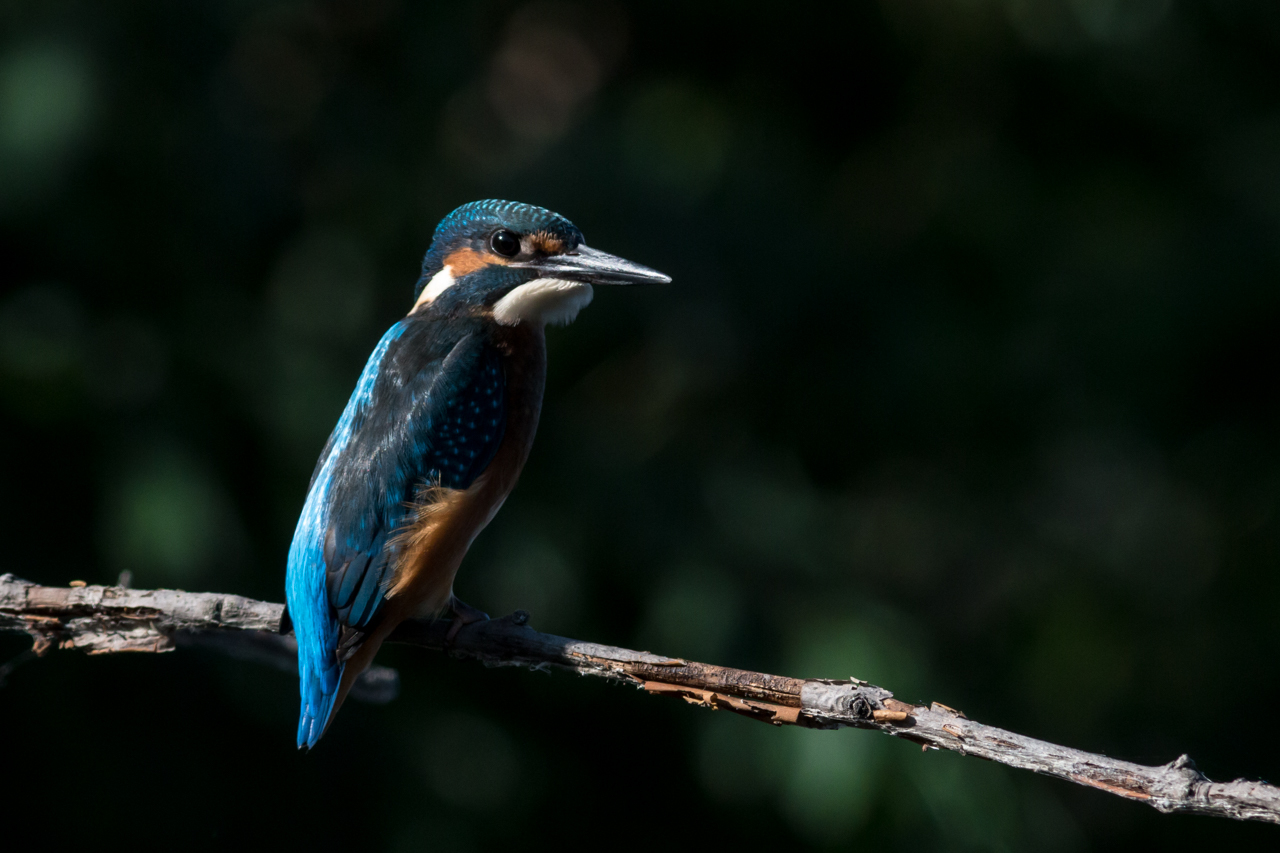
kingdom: Animalia
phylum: Chordata
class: Aves
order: Coraciiformes
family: Alcedinidae
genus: Alcedo
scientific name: Alcedo atthis
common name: Common kingfisher
